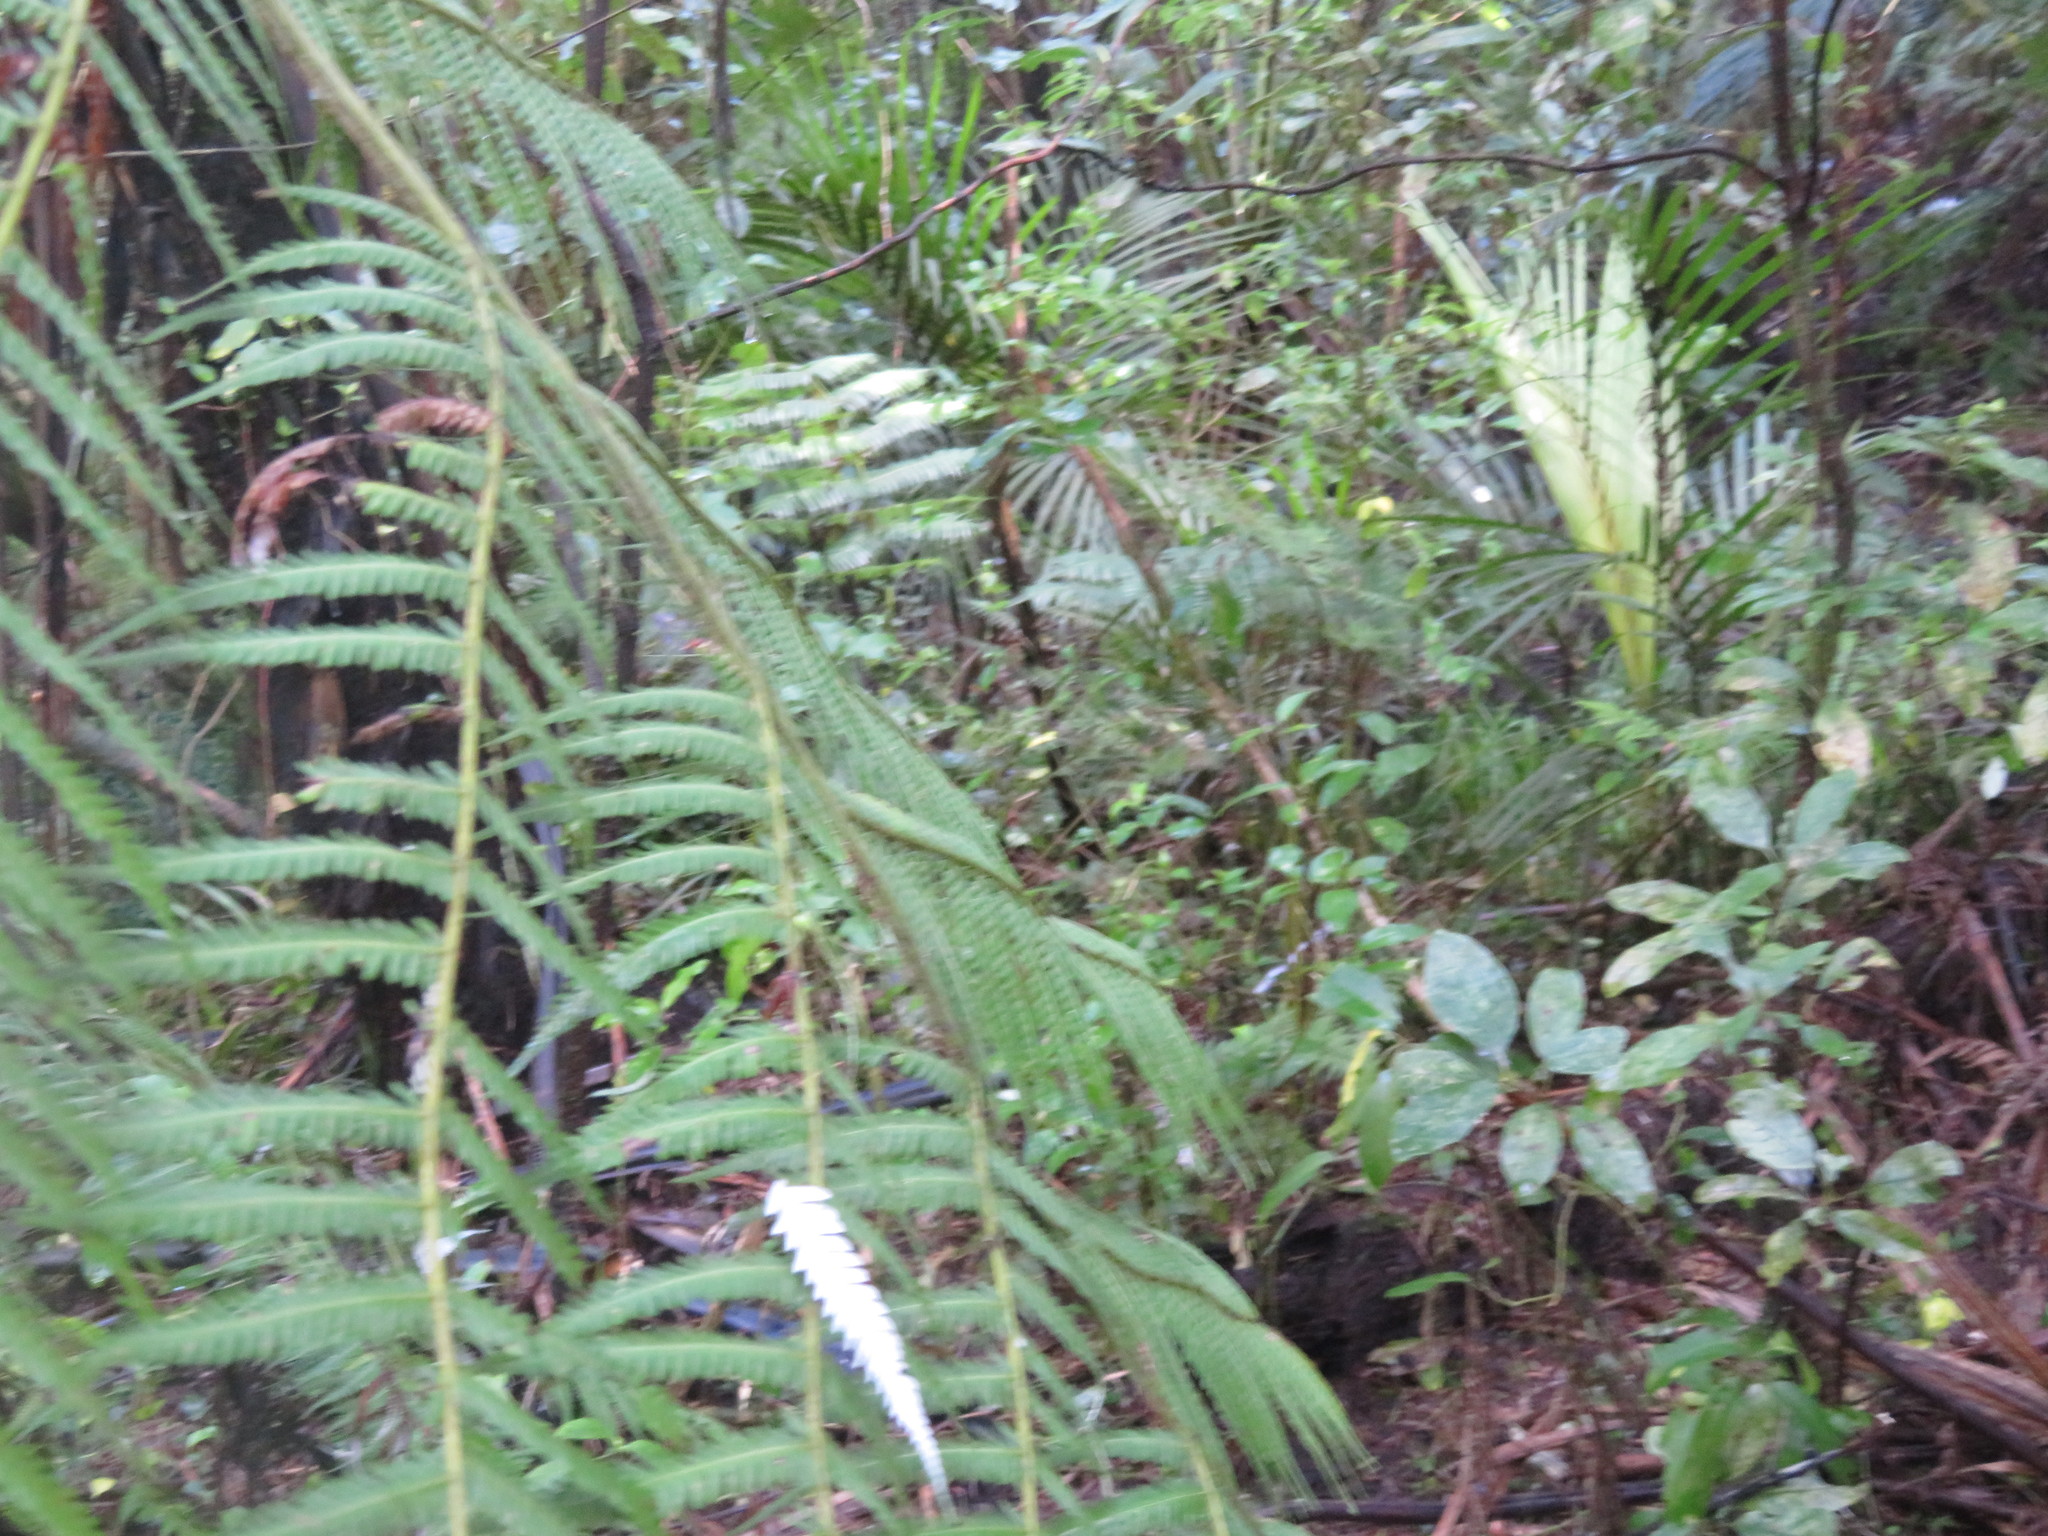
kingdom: Plantae
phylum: Tracheophyta
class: Liliopsida
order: Arecales
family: Arecaceae
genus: Rhopalostylis
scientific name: Rhopalostylis sapida
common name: Feather-duster palm
